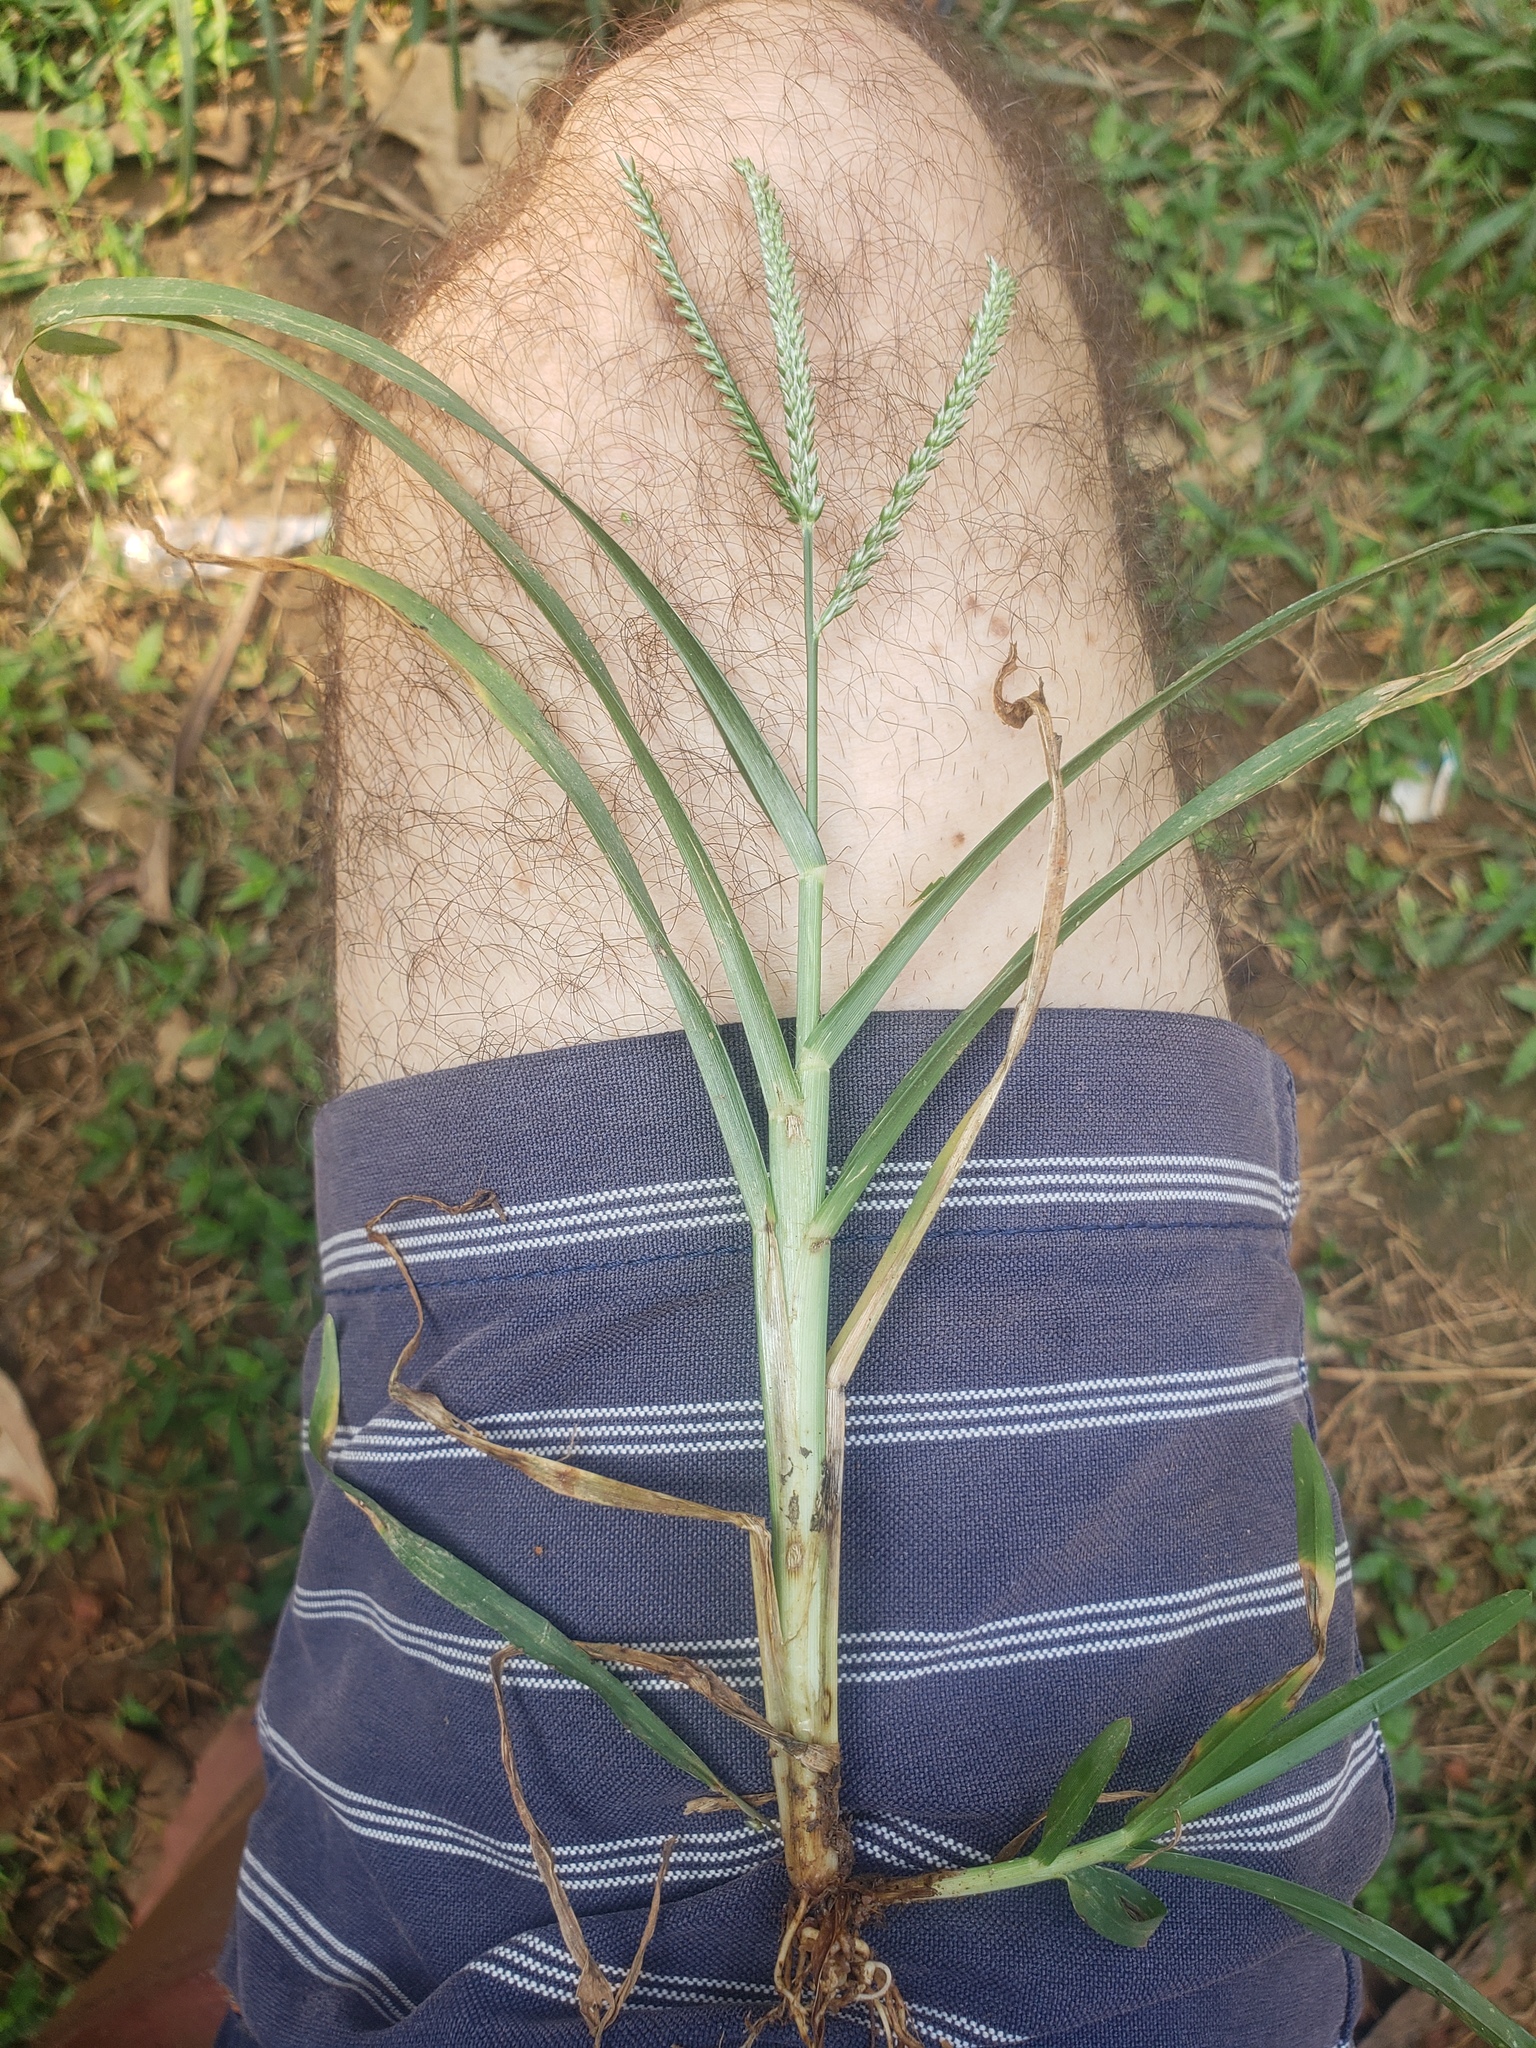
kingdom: Plantae
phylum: Tracheophyta
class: Liliopsida
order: Poales
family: Poaceae
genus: Eleusine
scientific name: Eleusine indica
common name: Yard-grass
